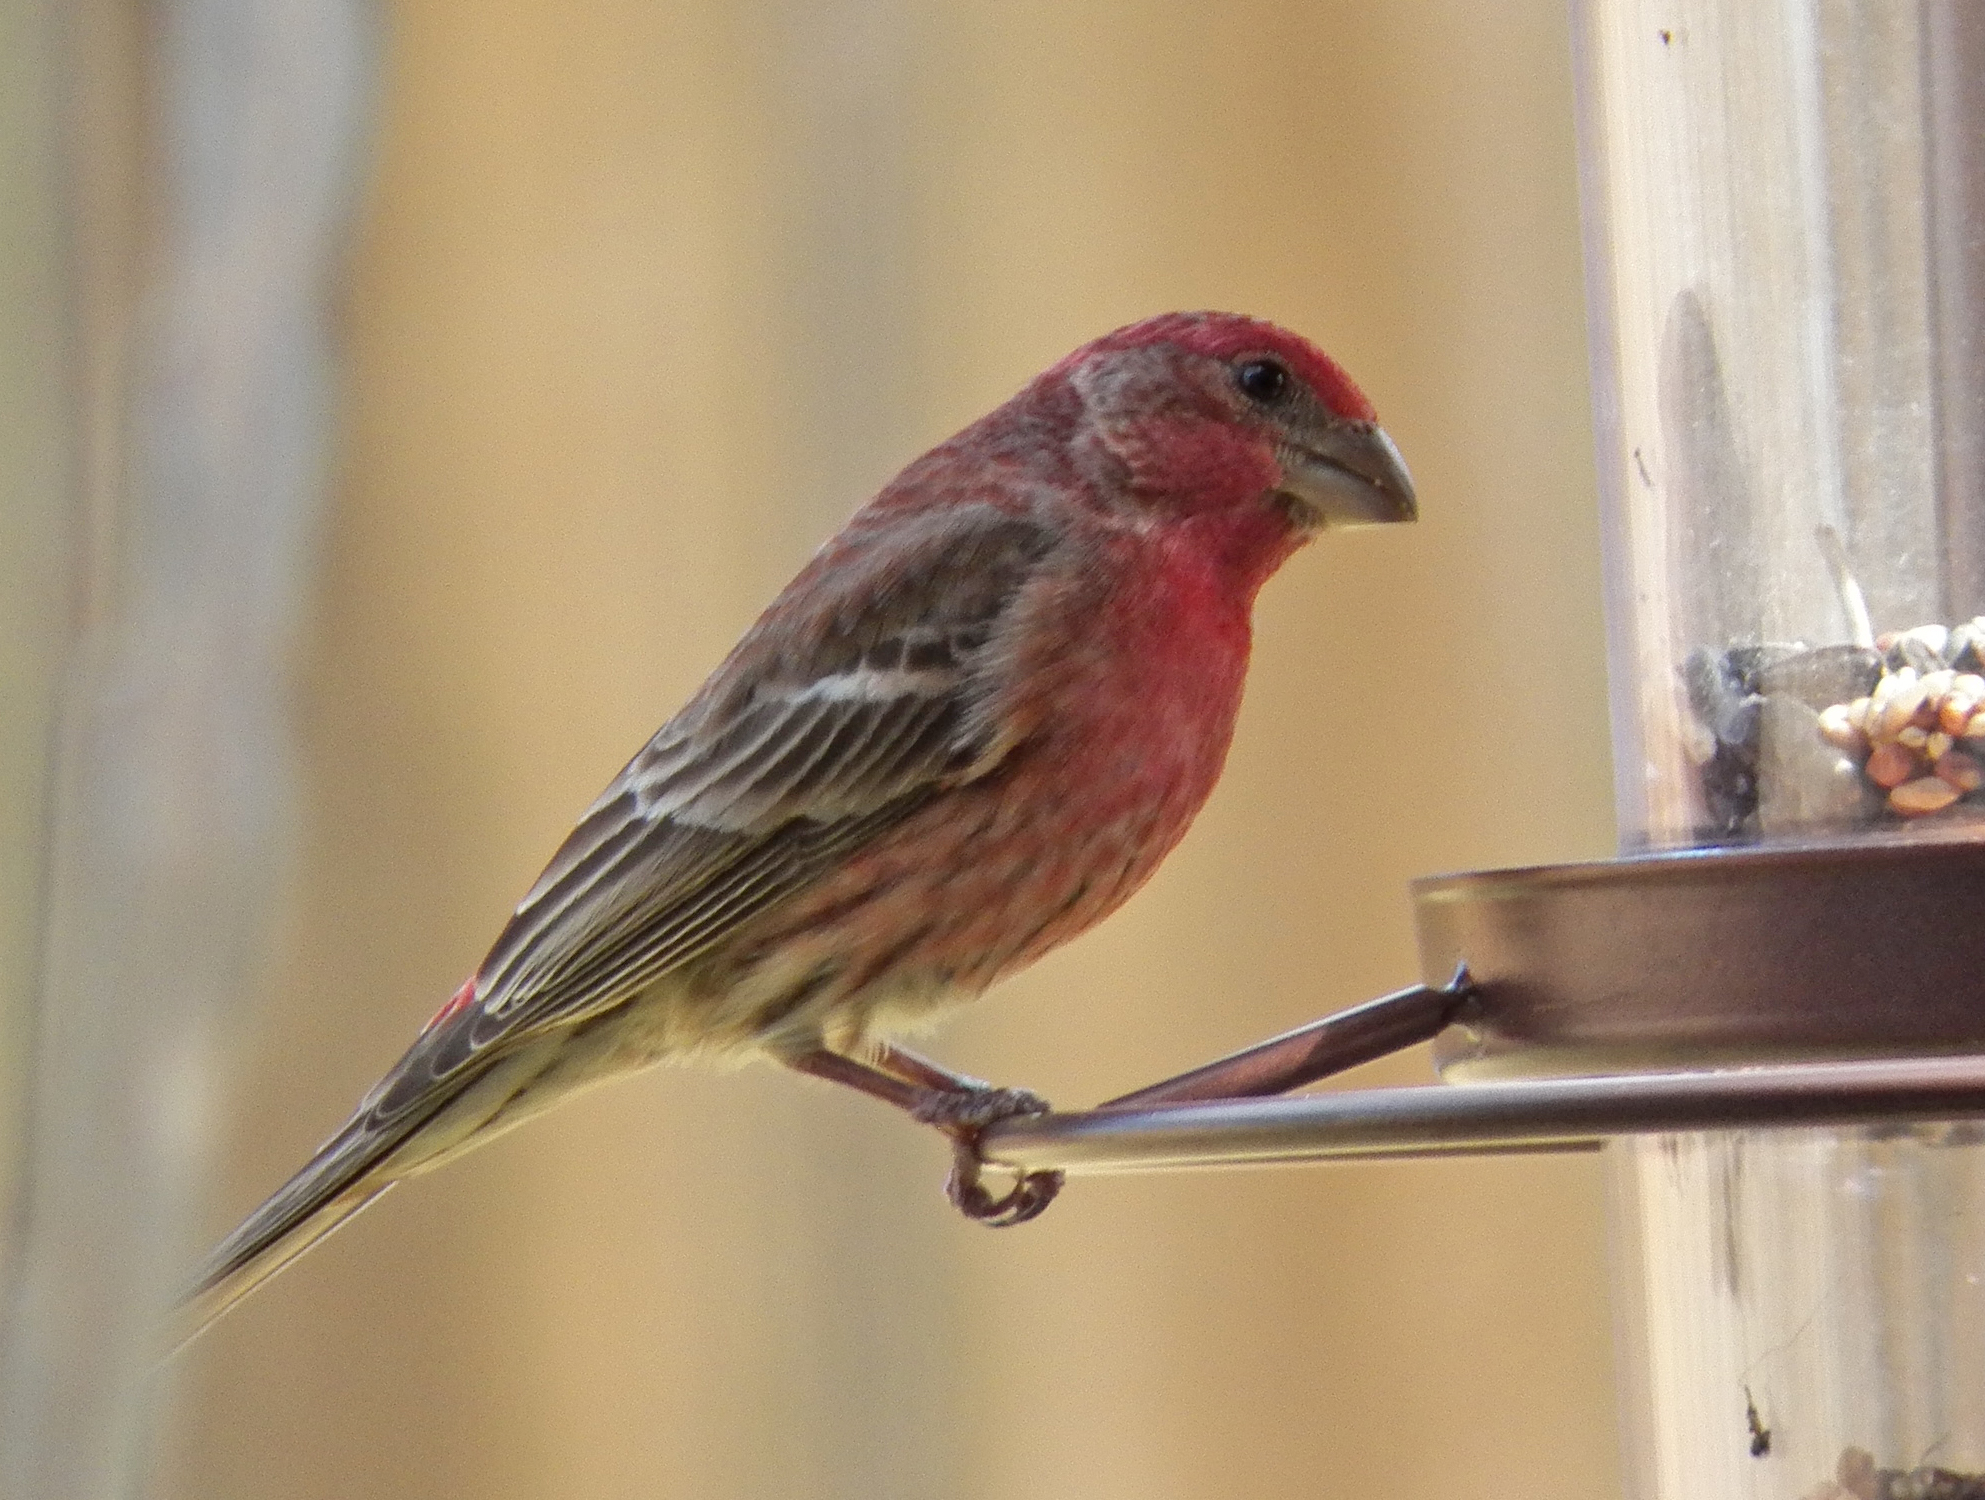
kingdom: Animalia
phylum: Chordata
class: Aves
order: Passeriformes
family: Fringillidae
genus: Haemorhous
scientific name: Haemorhous mexicanus
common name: House finch
